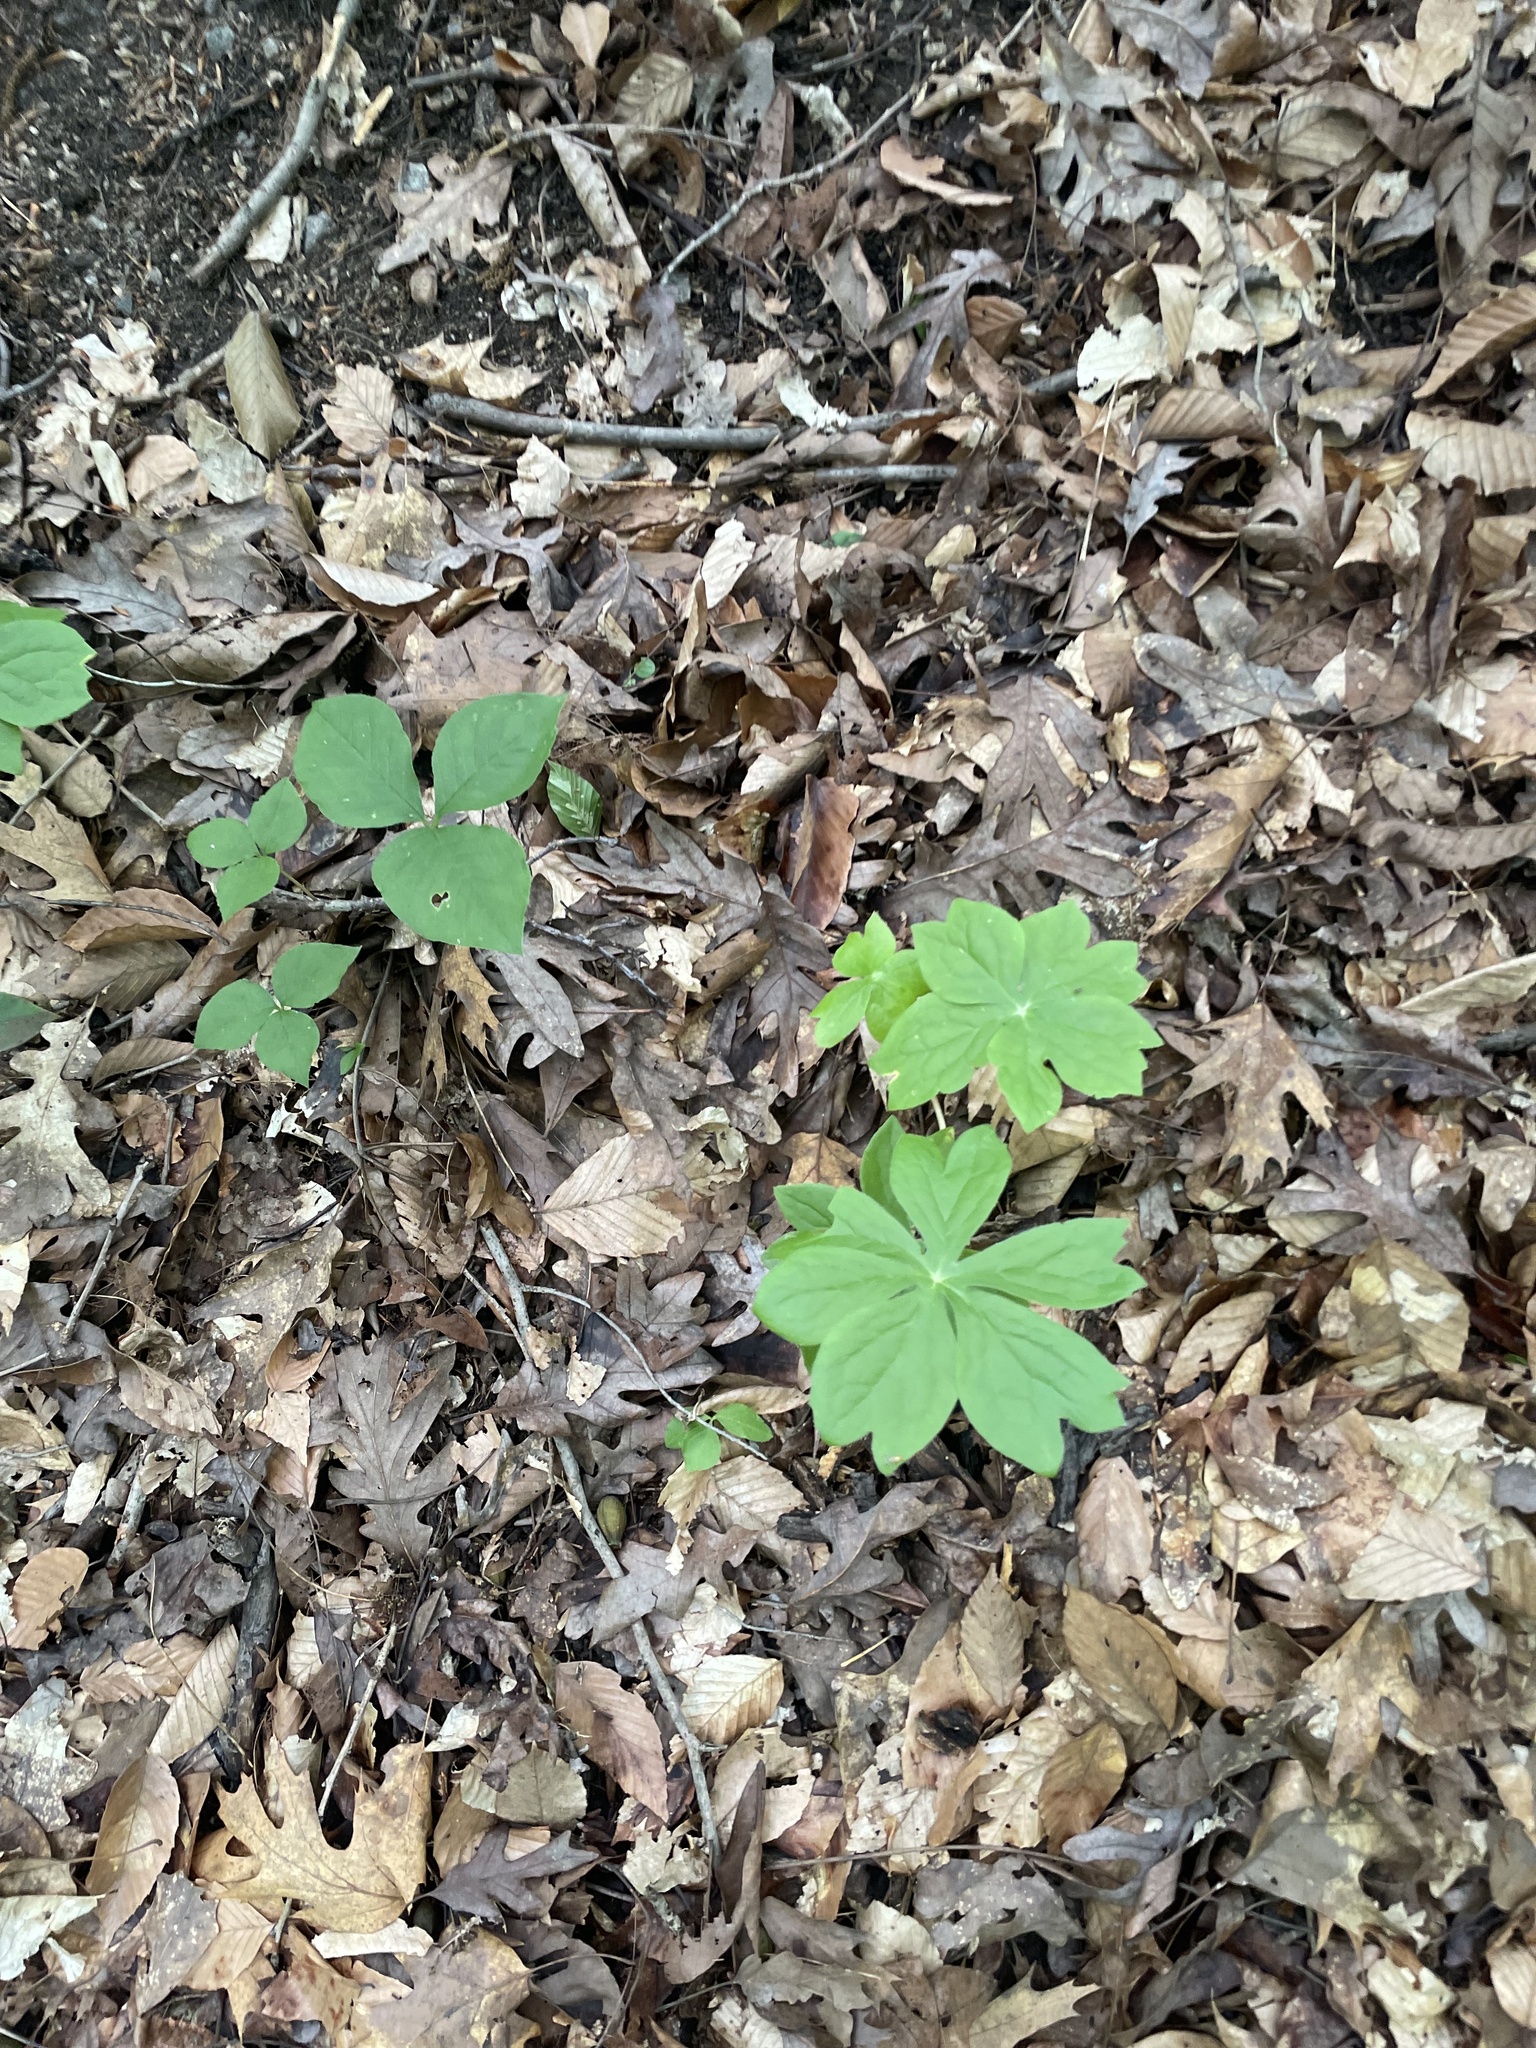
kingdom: Plantae
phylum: Tracheophyta
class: Magnoliopsida
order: Ranunculales
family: Berberidaceae
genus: Podophyllum
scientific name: Podophyllum peltatum
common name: Wild mandrake
